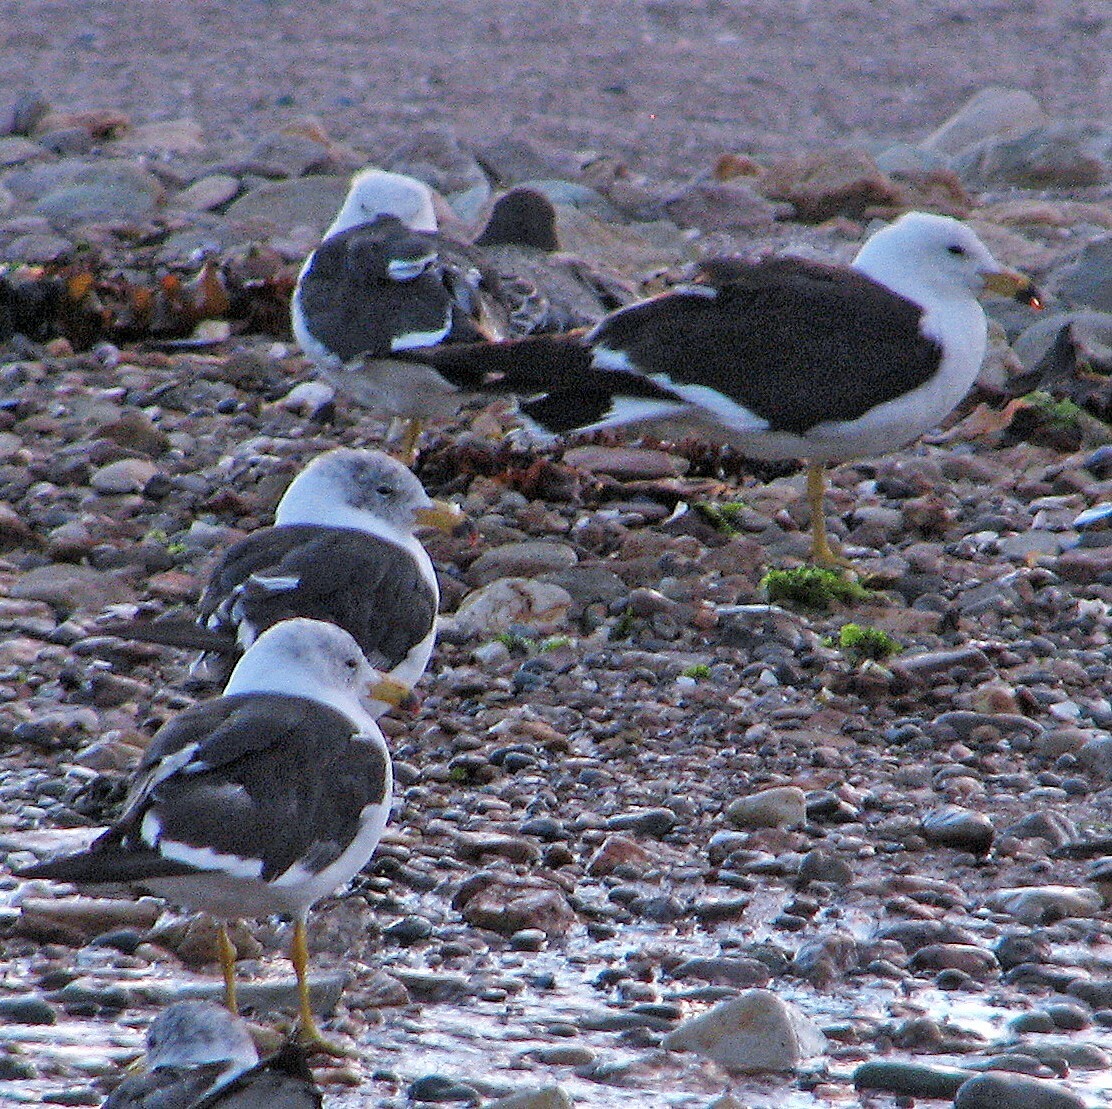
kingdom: Animalia
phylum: Chordata
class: Aves
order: Charadriiformes
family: Laridae
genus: Larus
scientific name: Larus atlanticus
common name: Olrog's gull
